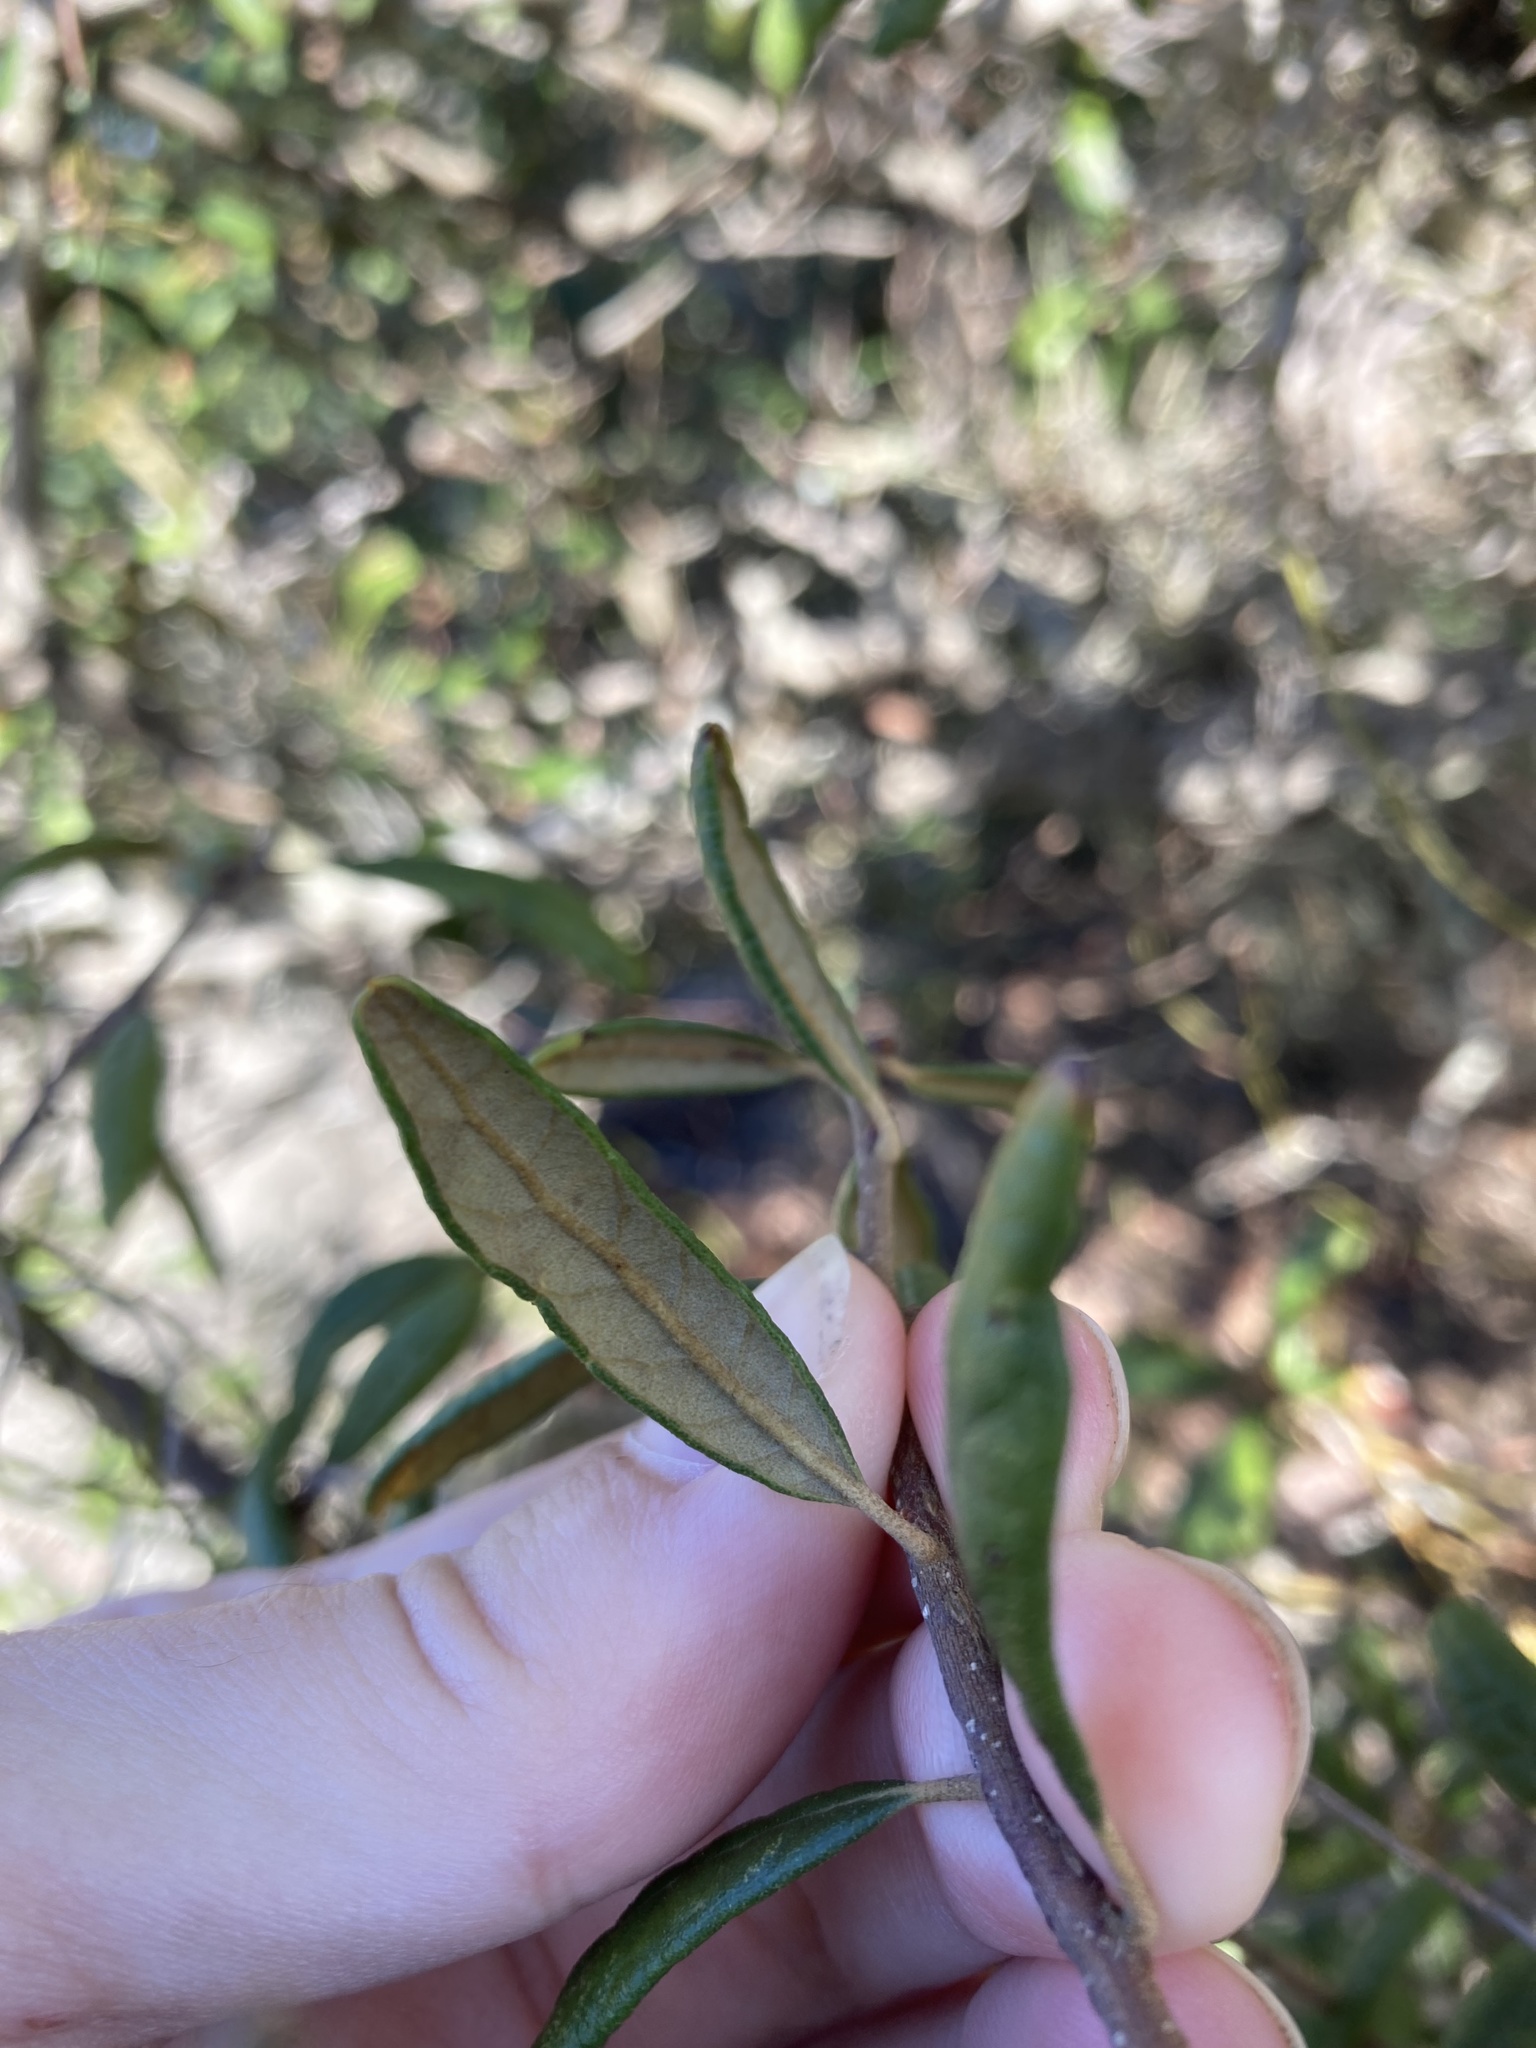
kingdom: Plantae
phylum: Tracheophyta
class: Magnoliopsida
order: Fagales
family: Fagaceae
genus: Quercus
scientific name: Quercus geminata
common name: Sand live oak
